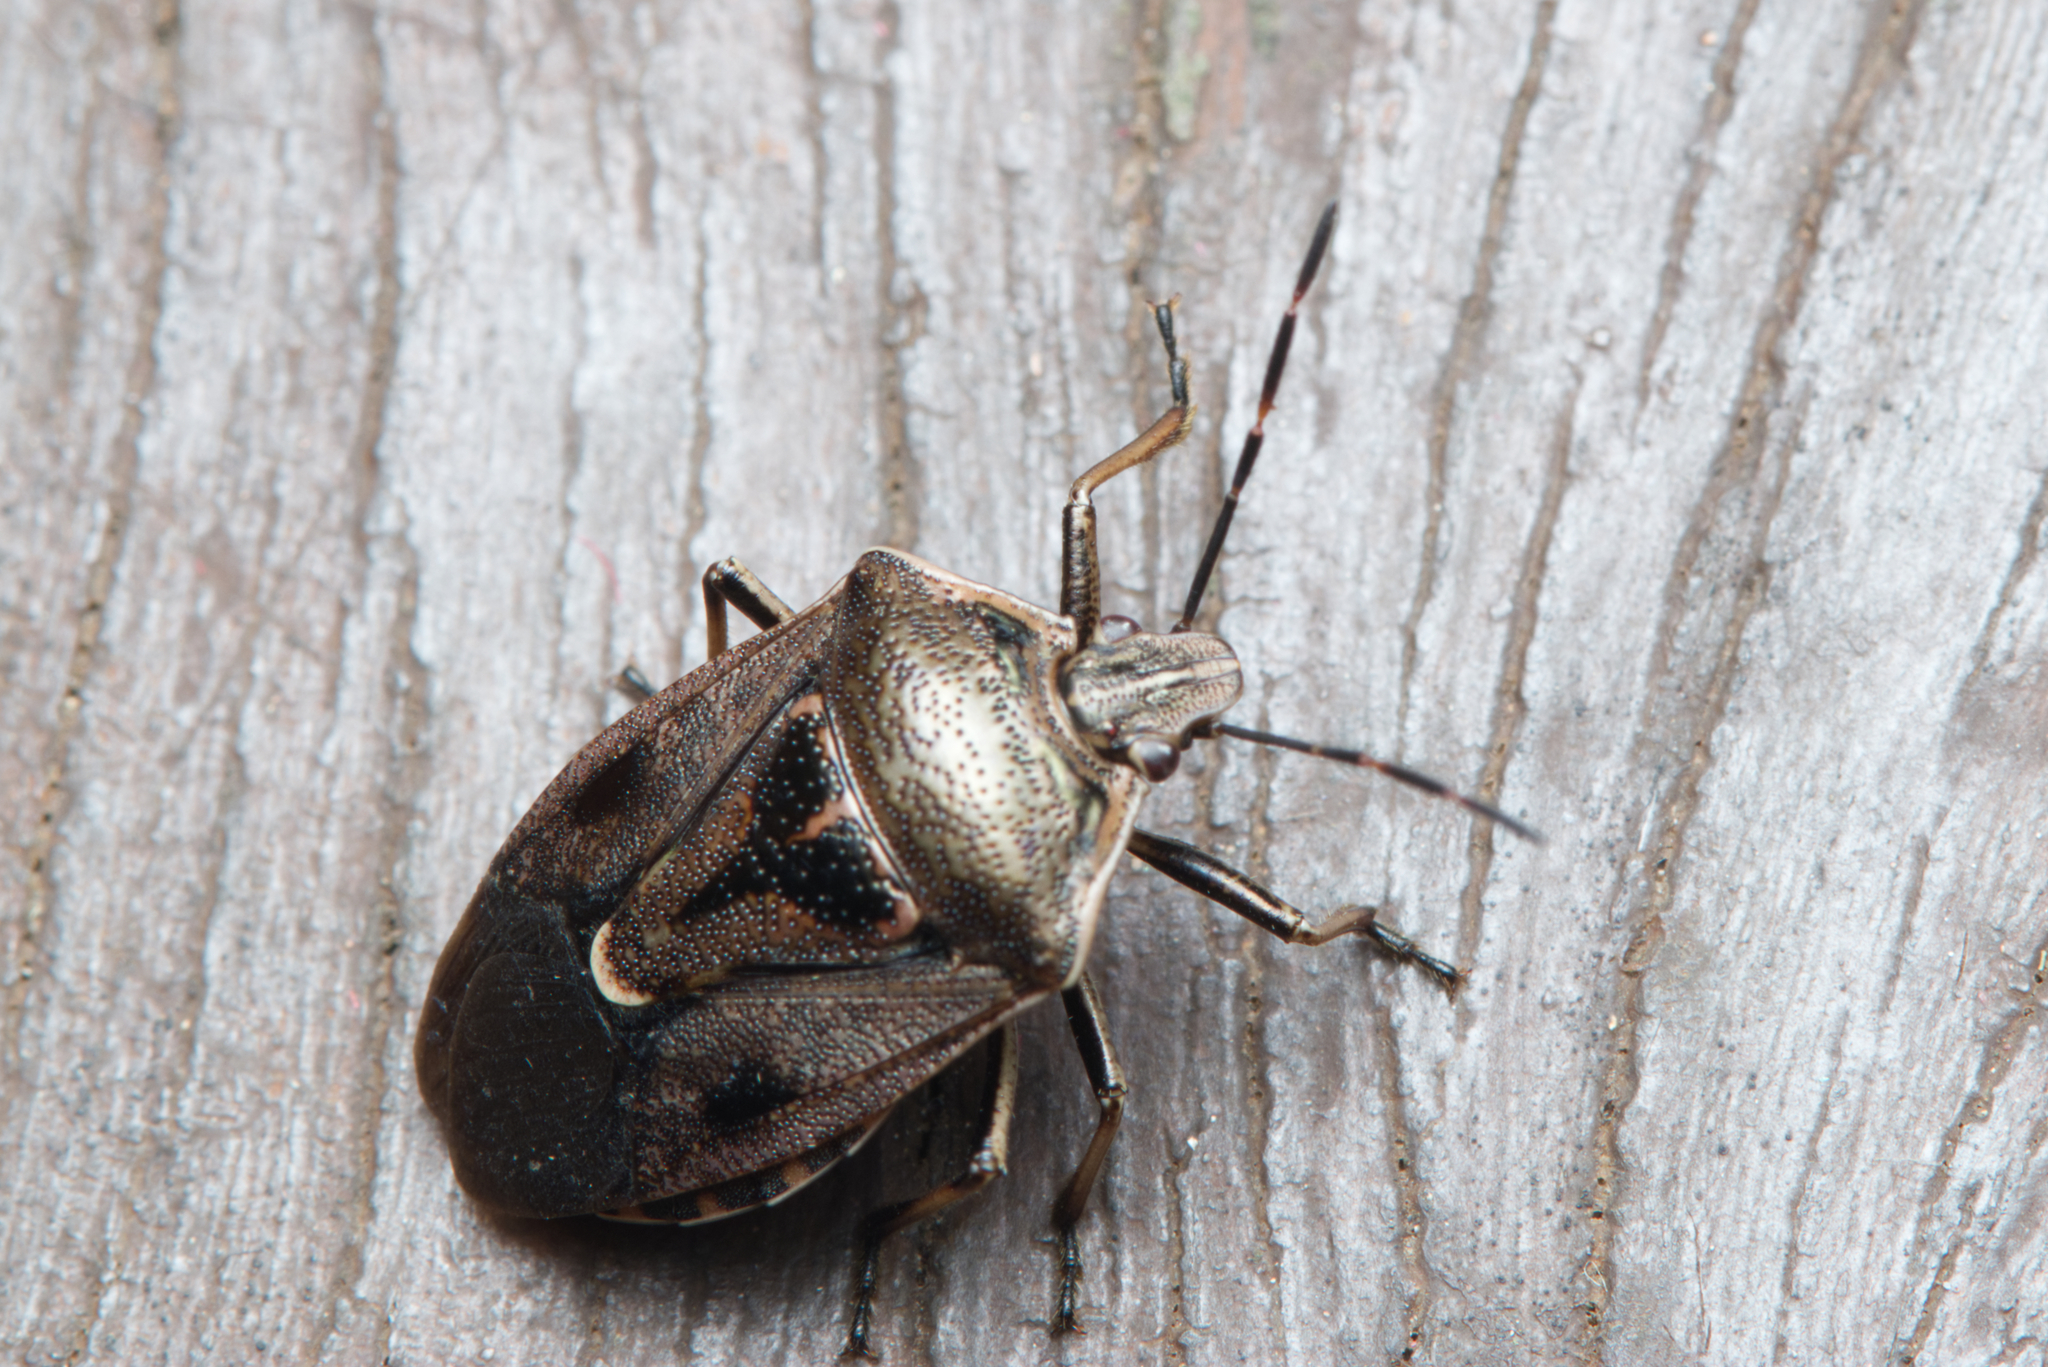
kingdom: Animalia
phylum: Arthropoda
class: Insecta
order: Hemiptera
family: Pentatomidae
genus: Cermatulus
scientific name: Cermatulus nasalis
